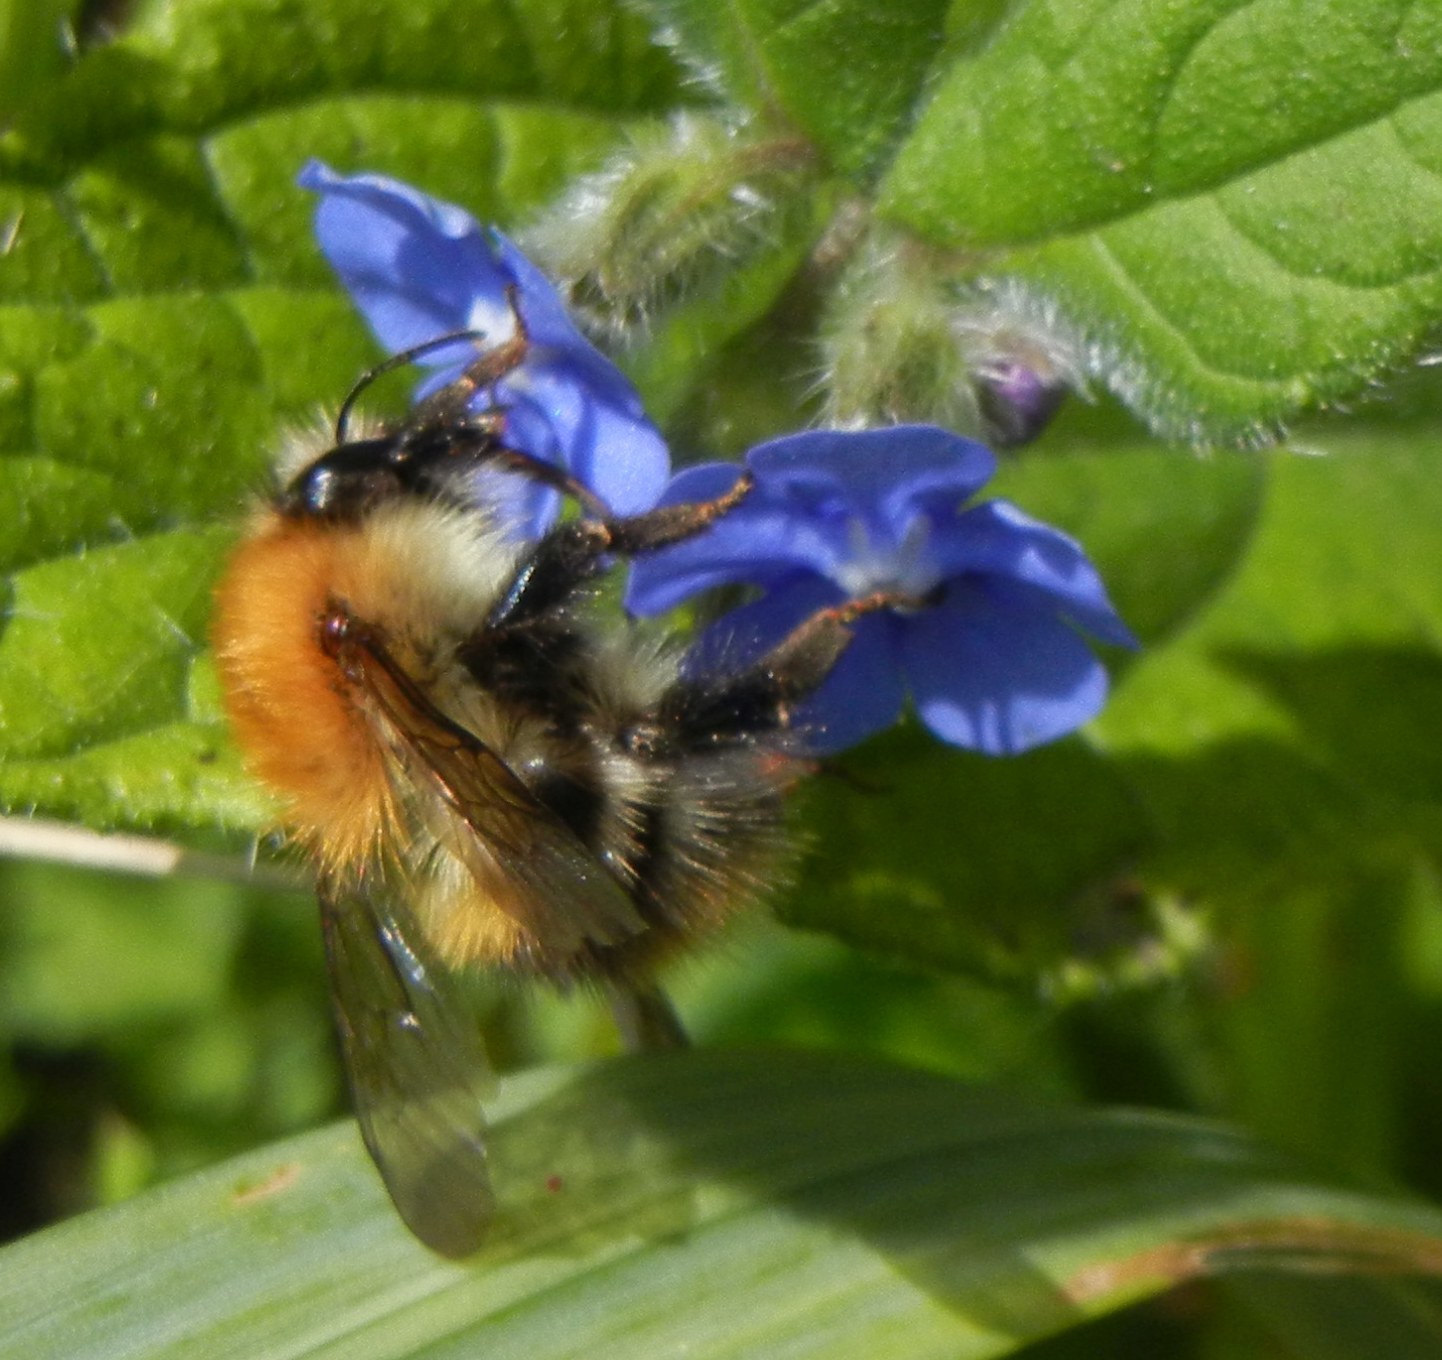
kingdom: Animalia
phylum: Arthropoda
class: Insecta
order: Hymenoptera
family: Apidae
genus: Bombus
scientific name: Bombus pascuorum
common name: Common carder bee
